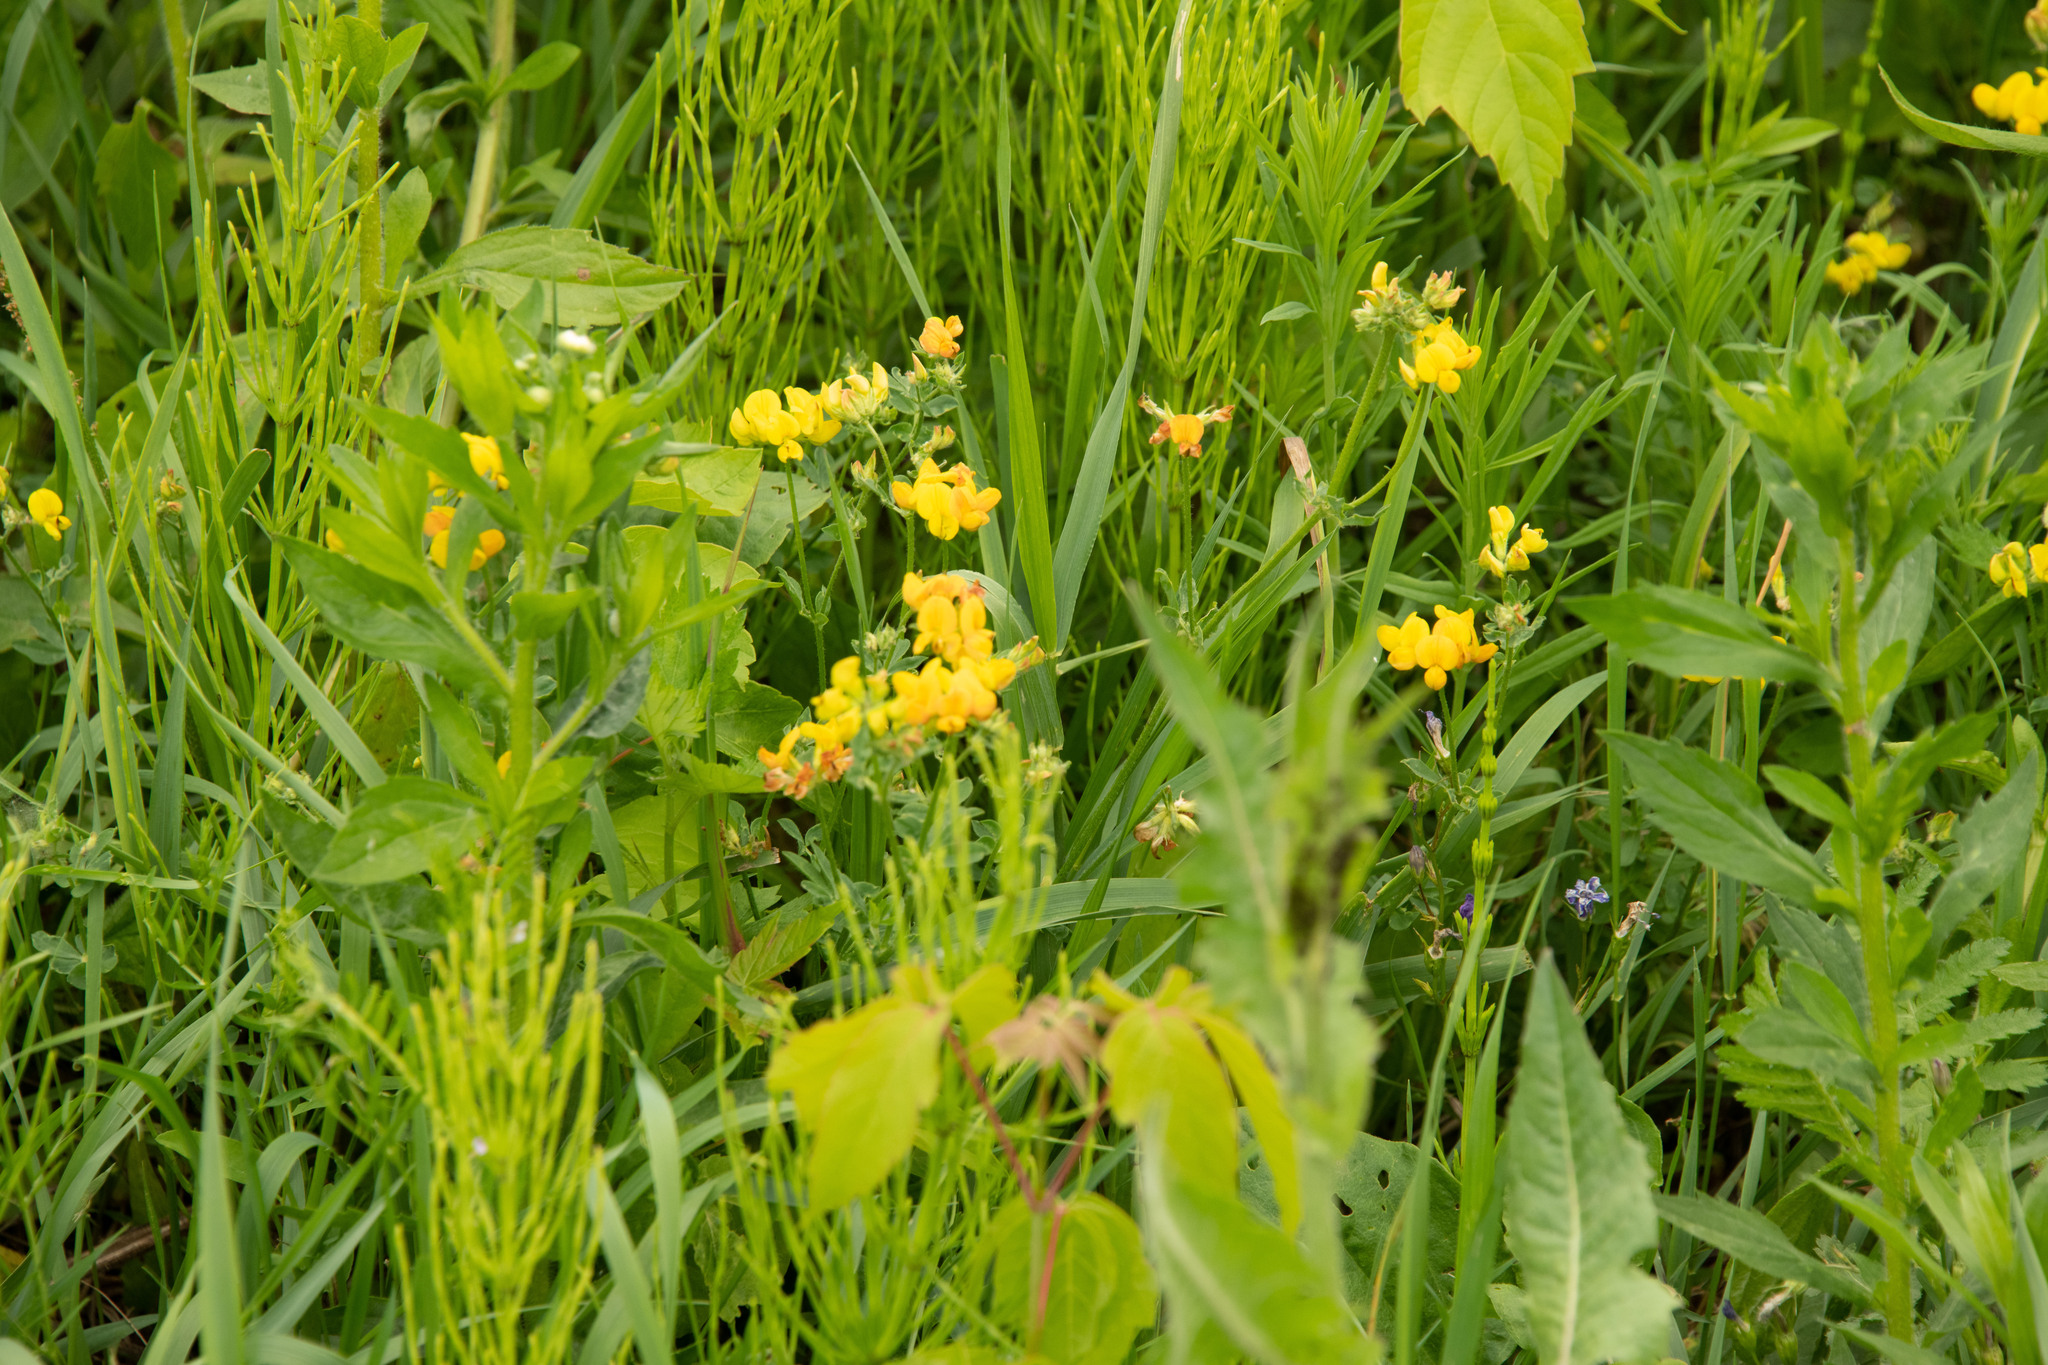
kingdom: Plantae
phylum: Tracheophyta
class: Magnoliopsida
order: Fabales
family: Fabaceae
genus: Lotus
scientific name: Lotus corniculatus
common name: Common bird's-foot-trefoil
